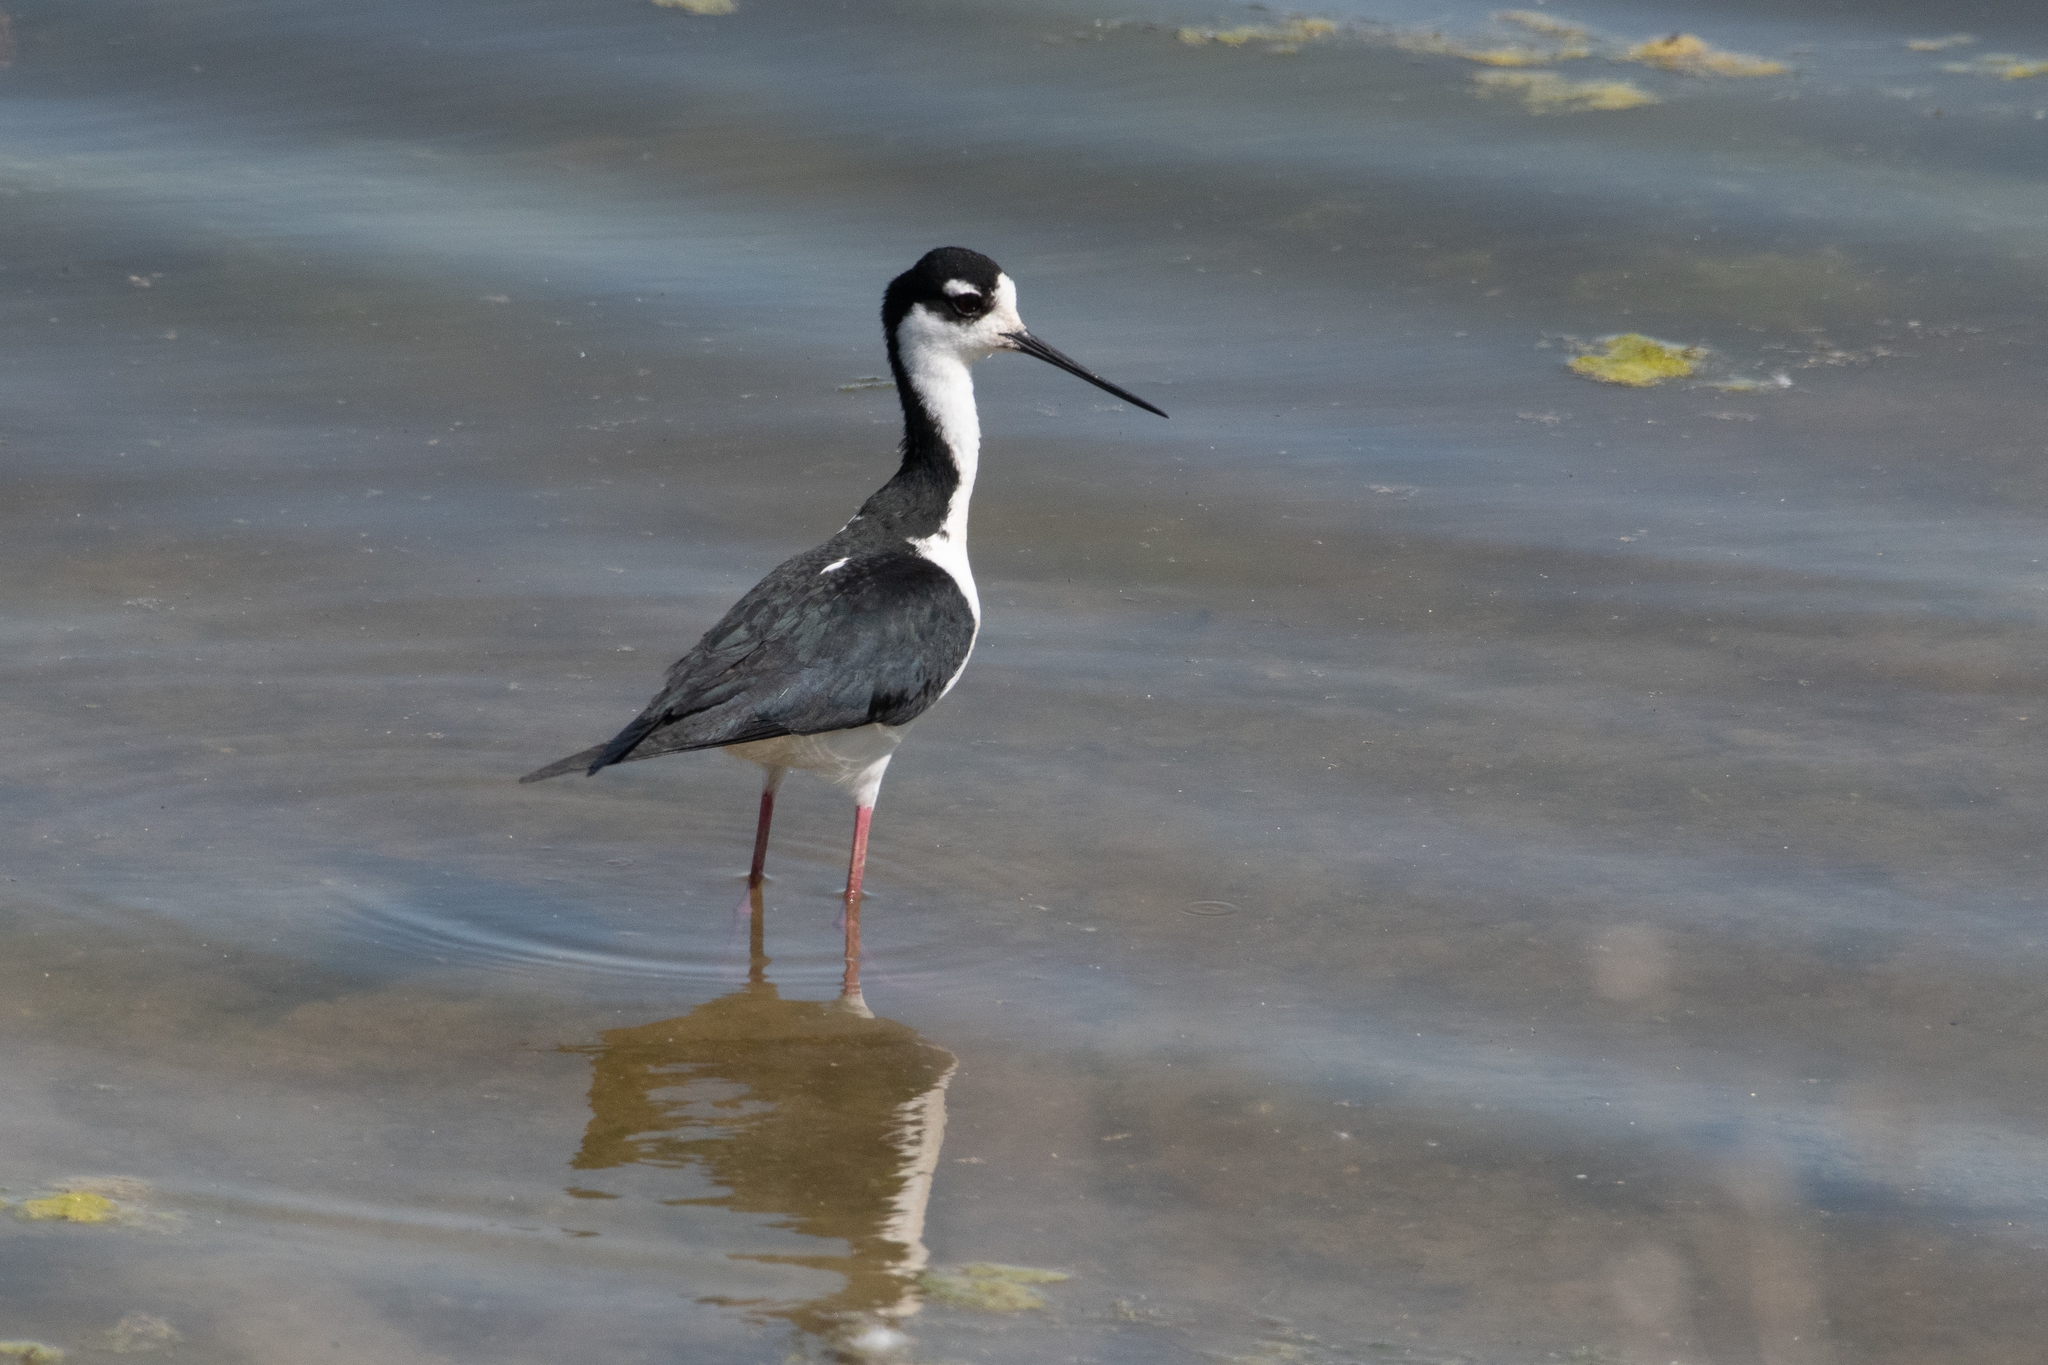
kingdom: Animalia
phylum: Chordata
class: Aves
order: Charadriiformes
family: Recurvirostridae
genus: Himantopus
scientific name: Himantopus mexicanus
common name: Black-necked stilt
